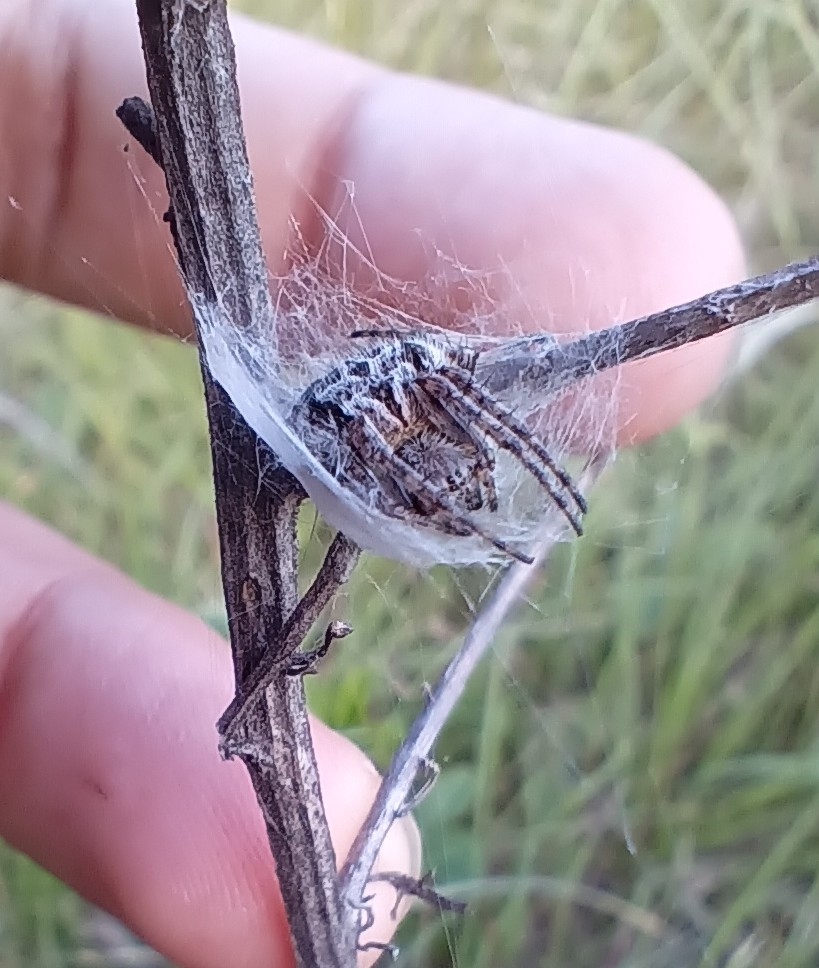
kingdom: Animalia
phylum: Arthropoda
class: Arachnida
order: Araneae
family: Araneidae
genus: Agalenatea
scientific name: Agalenatea redii
